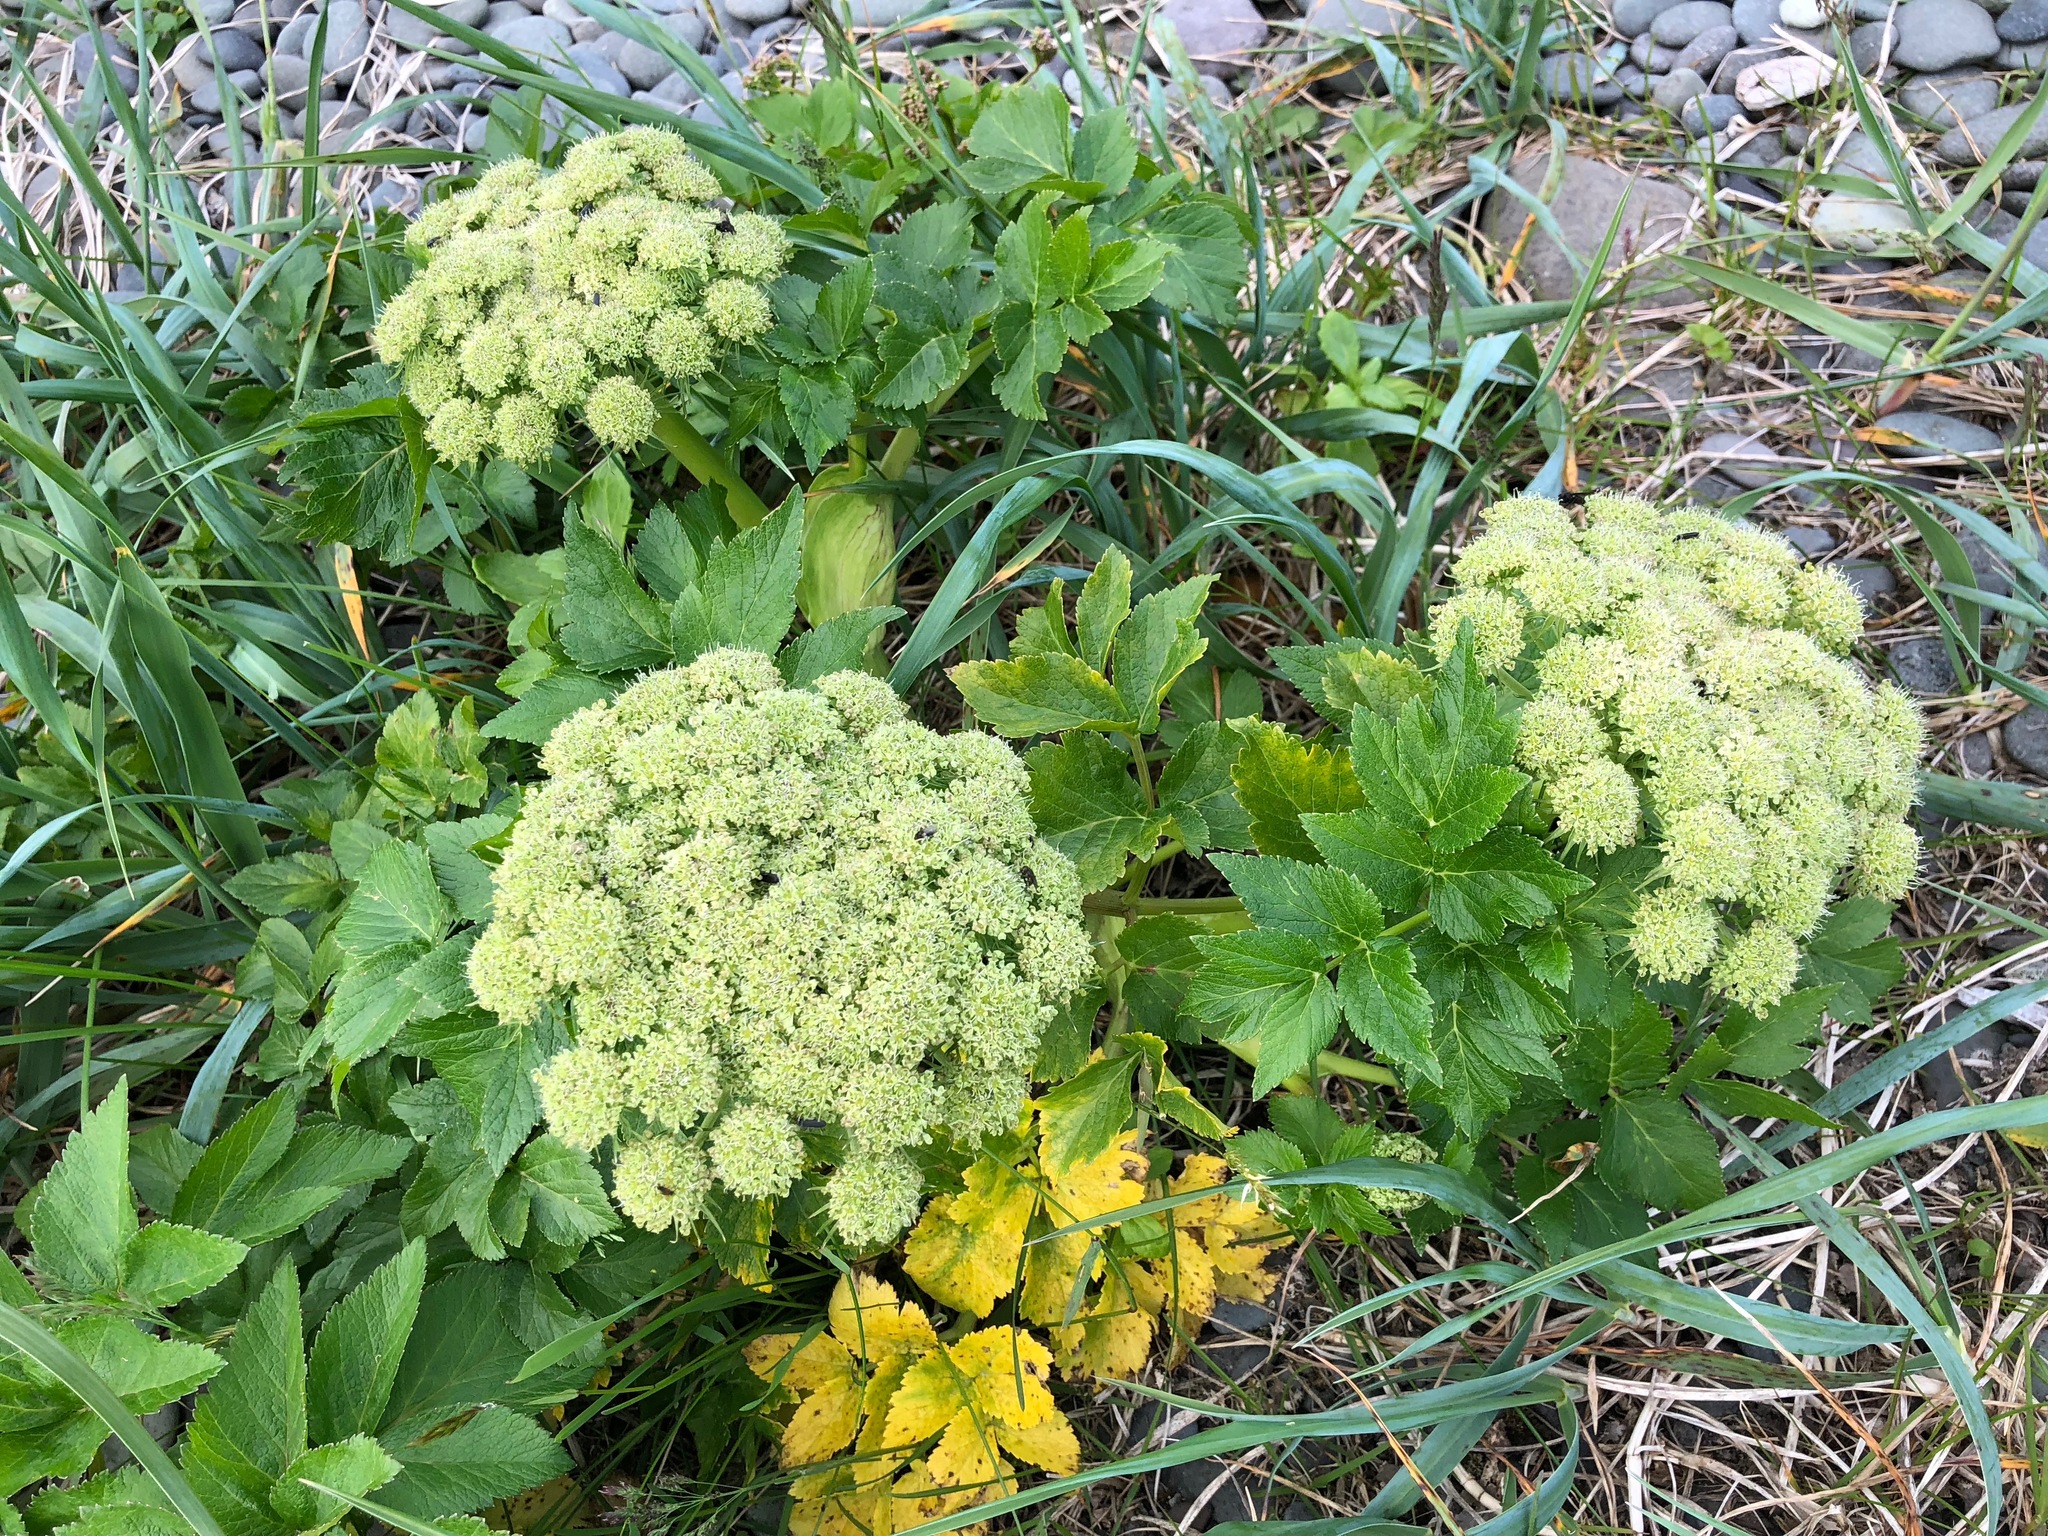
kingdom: Plantae
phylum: Tracheophyta
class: Magnoliopsida
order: Apiales
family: Apiaceae
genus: Angelica
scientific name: Angelica lucida
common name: Seabeach angelica
